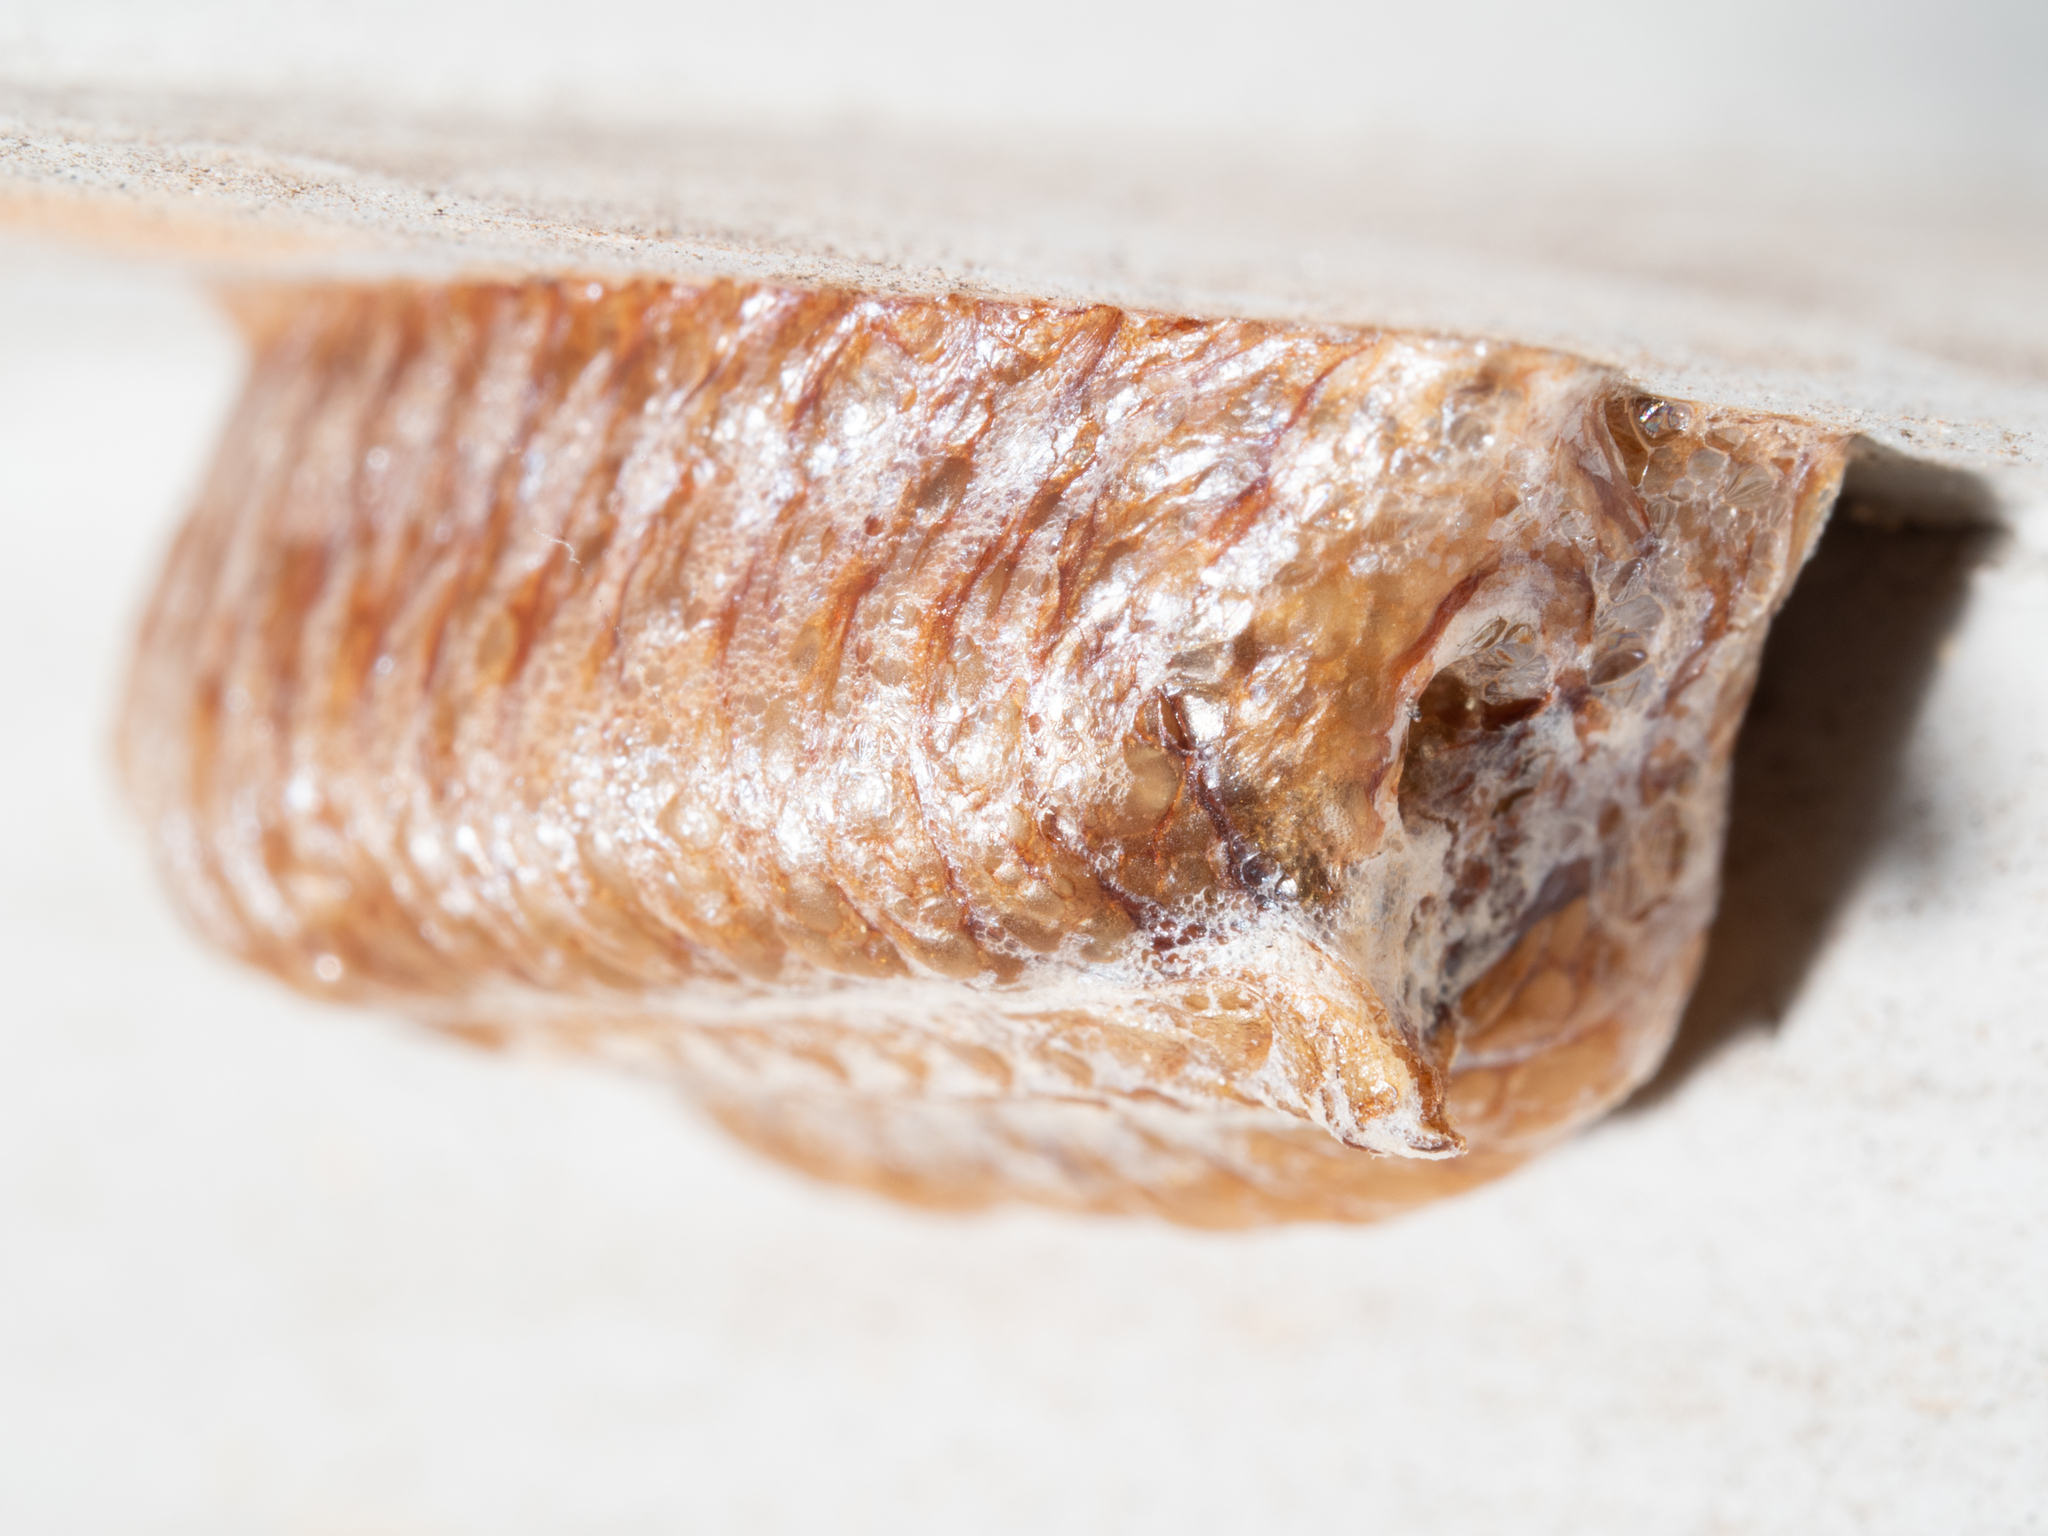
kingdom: Animalia
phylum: Arthropoda
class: Insecta
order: Mantodea
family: Mantidae
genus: Pseudomantis
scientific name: Pseudomantis albofimbriata
